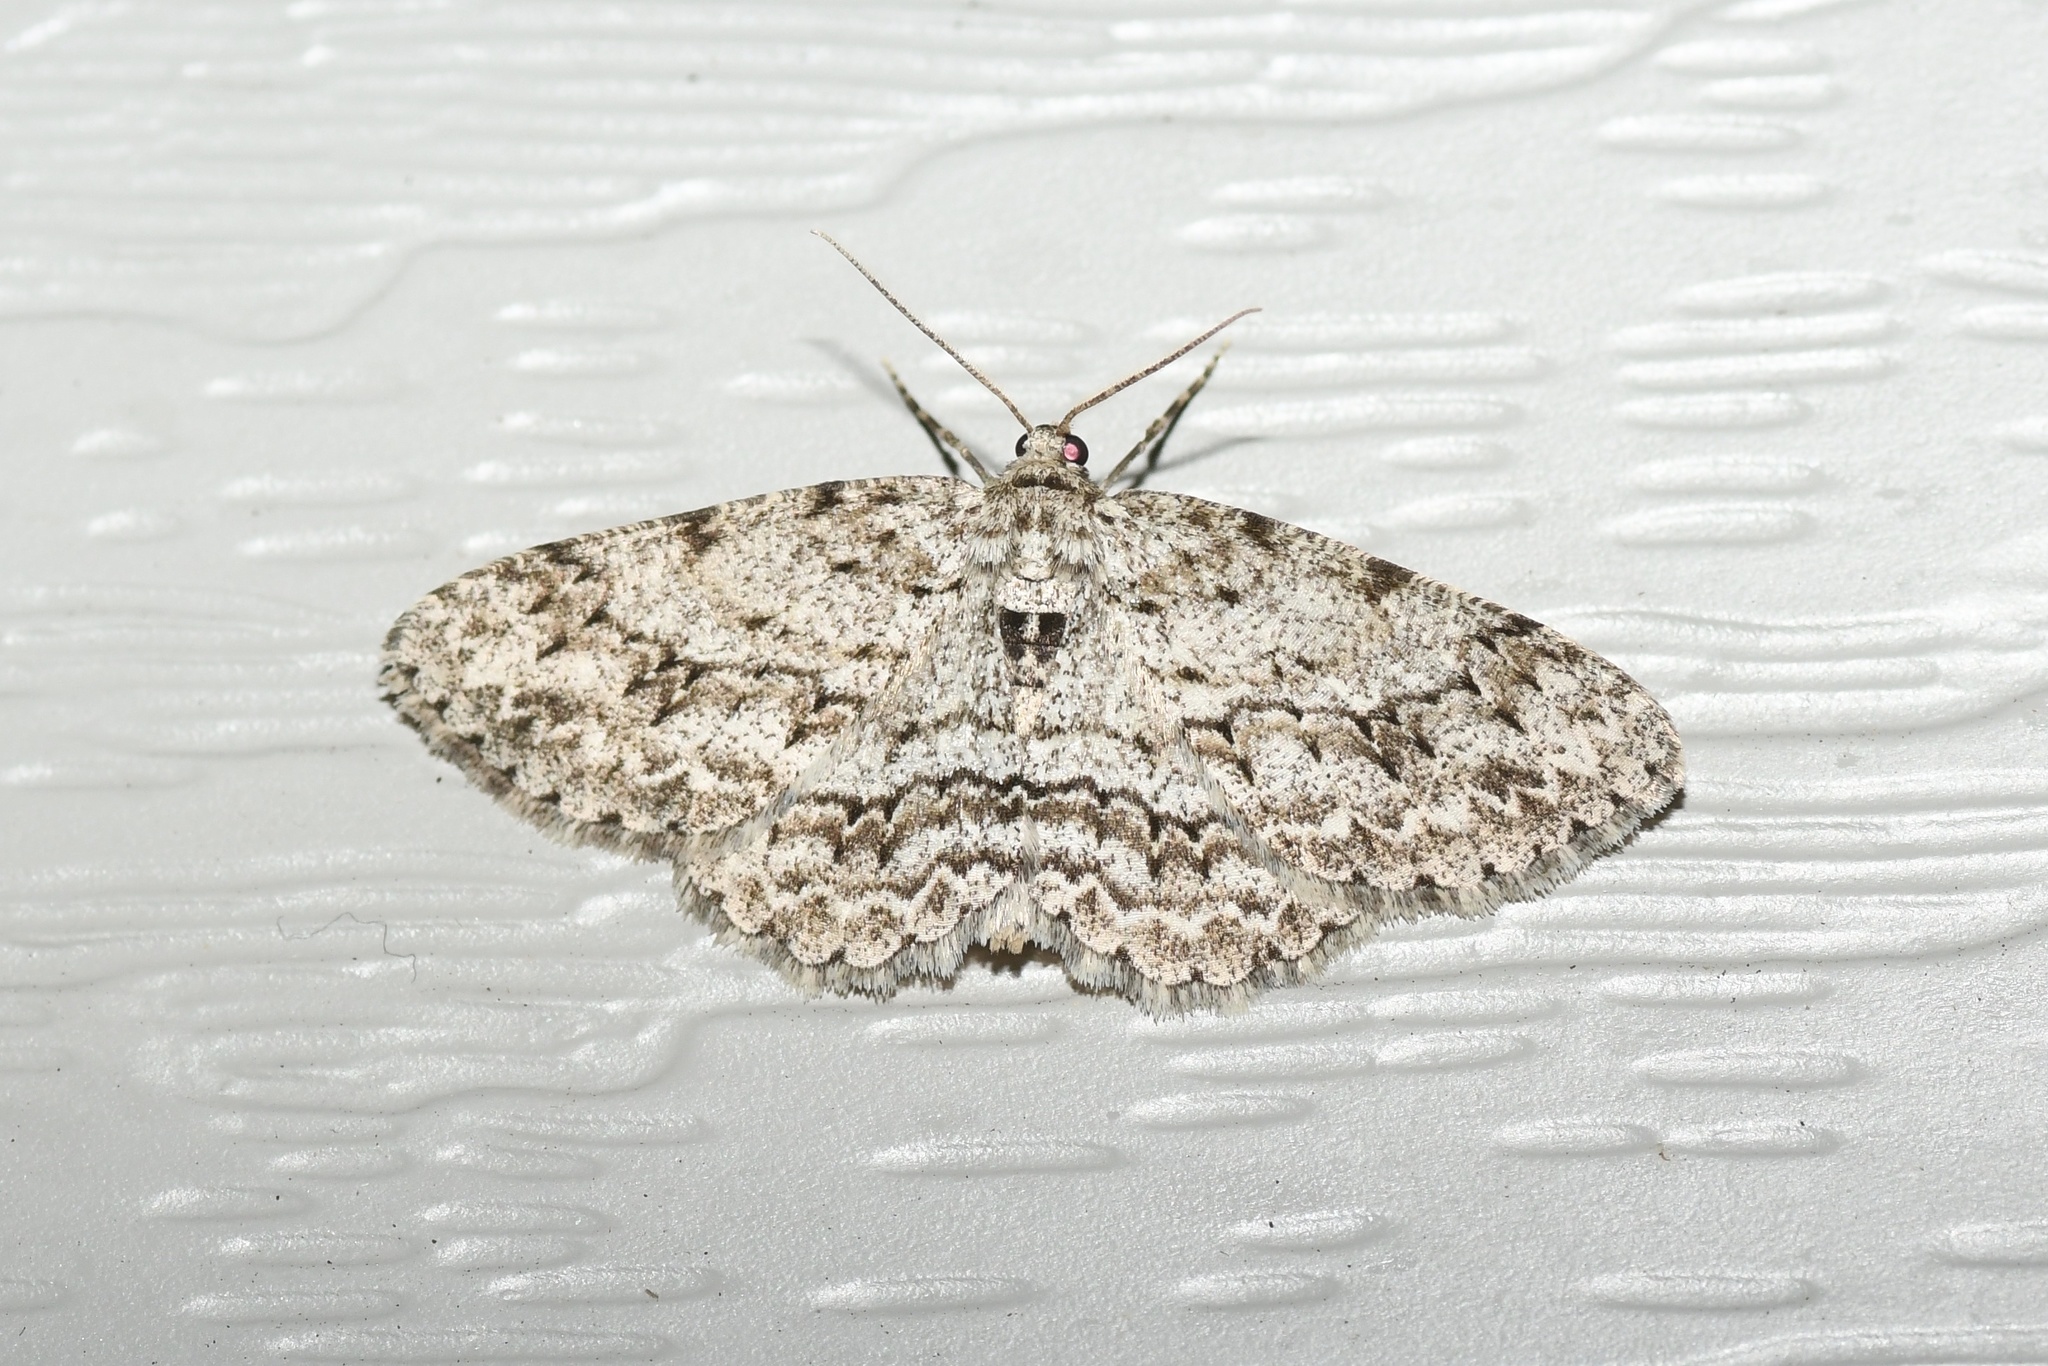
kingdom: Animalia
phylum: Arthropoda
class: Insecta
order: Lepidoptera
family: Geometridae
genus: Ectropis
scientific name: Ectropis crepuscularia
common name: Engrailed
